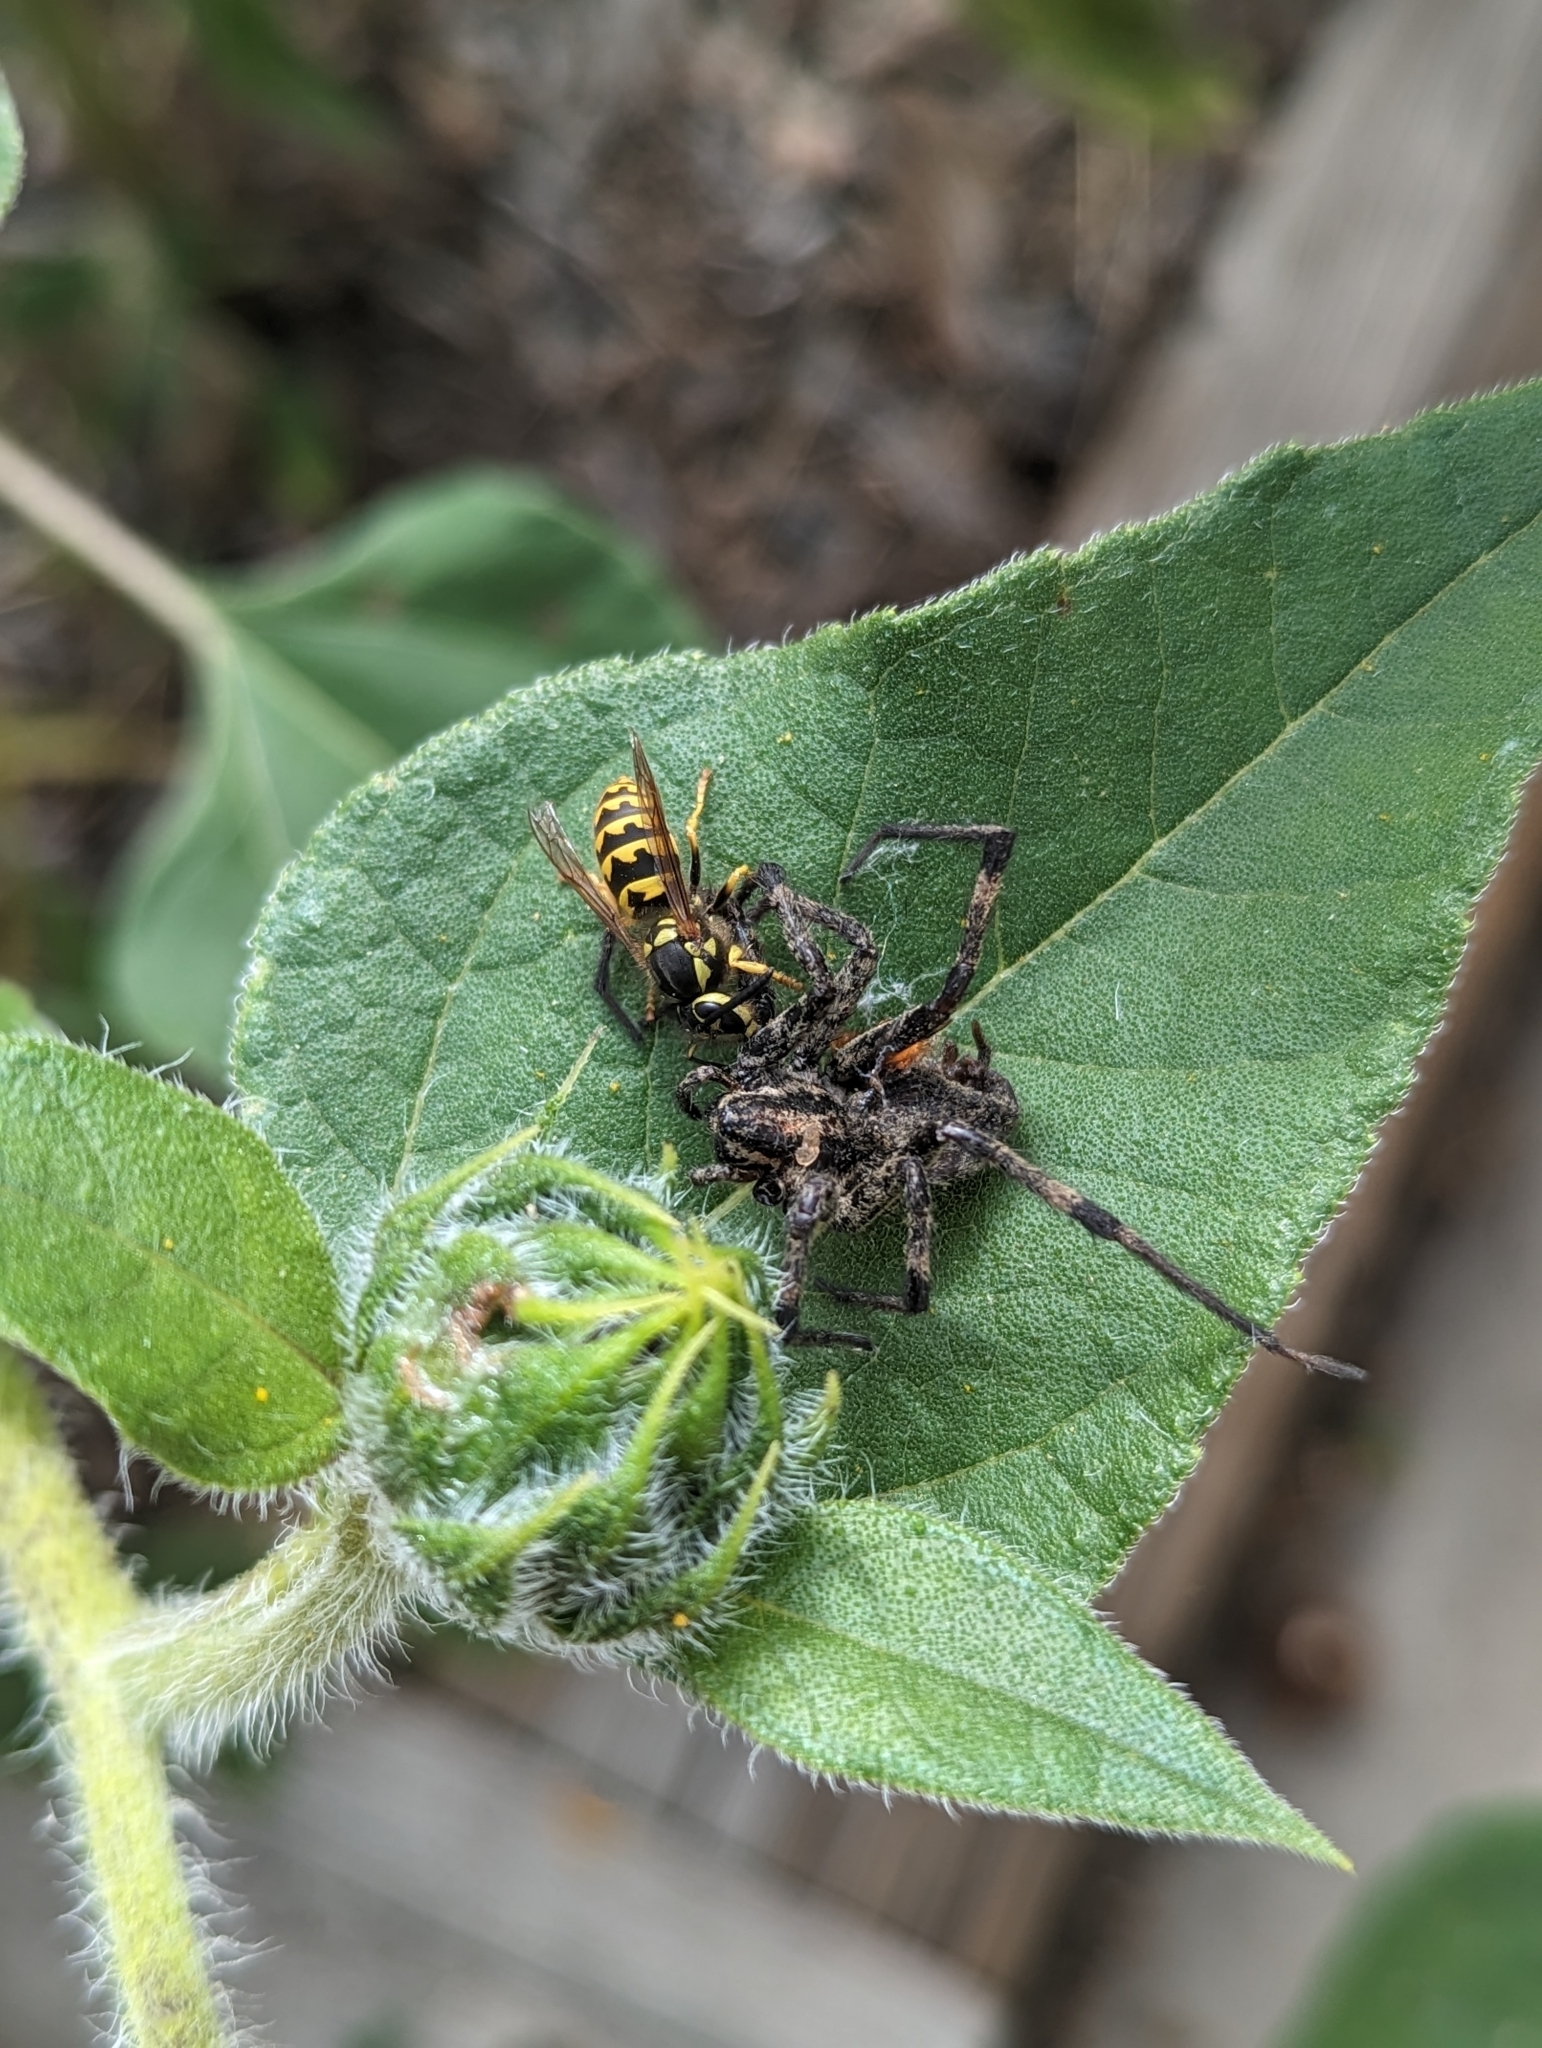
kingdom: Animalia
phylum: Arthropoda
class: Insecta
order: Hymenoptera
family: Vespidae
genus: Vespula
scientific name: Vespula pensylvanica
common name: Western yellowjacket
